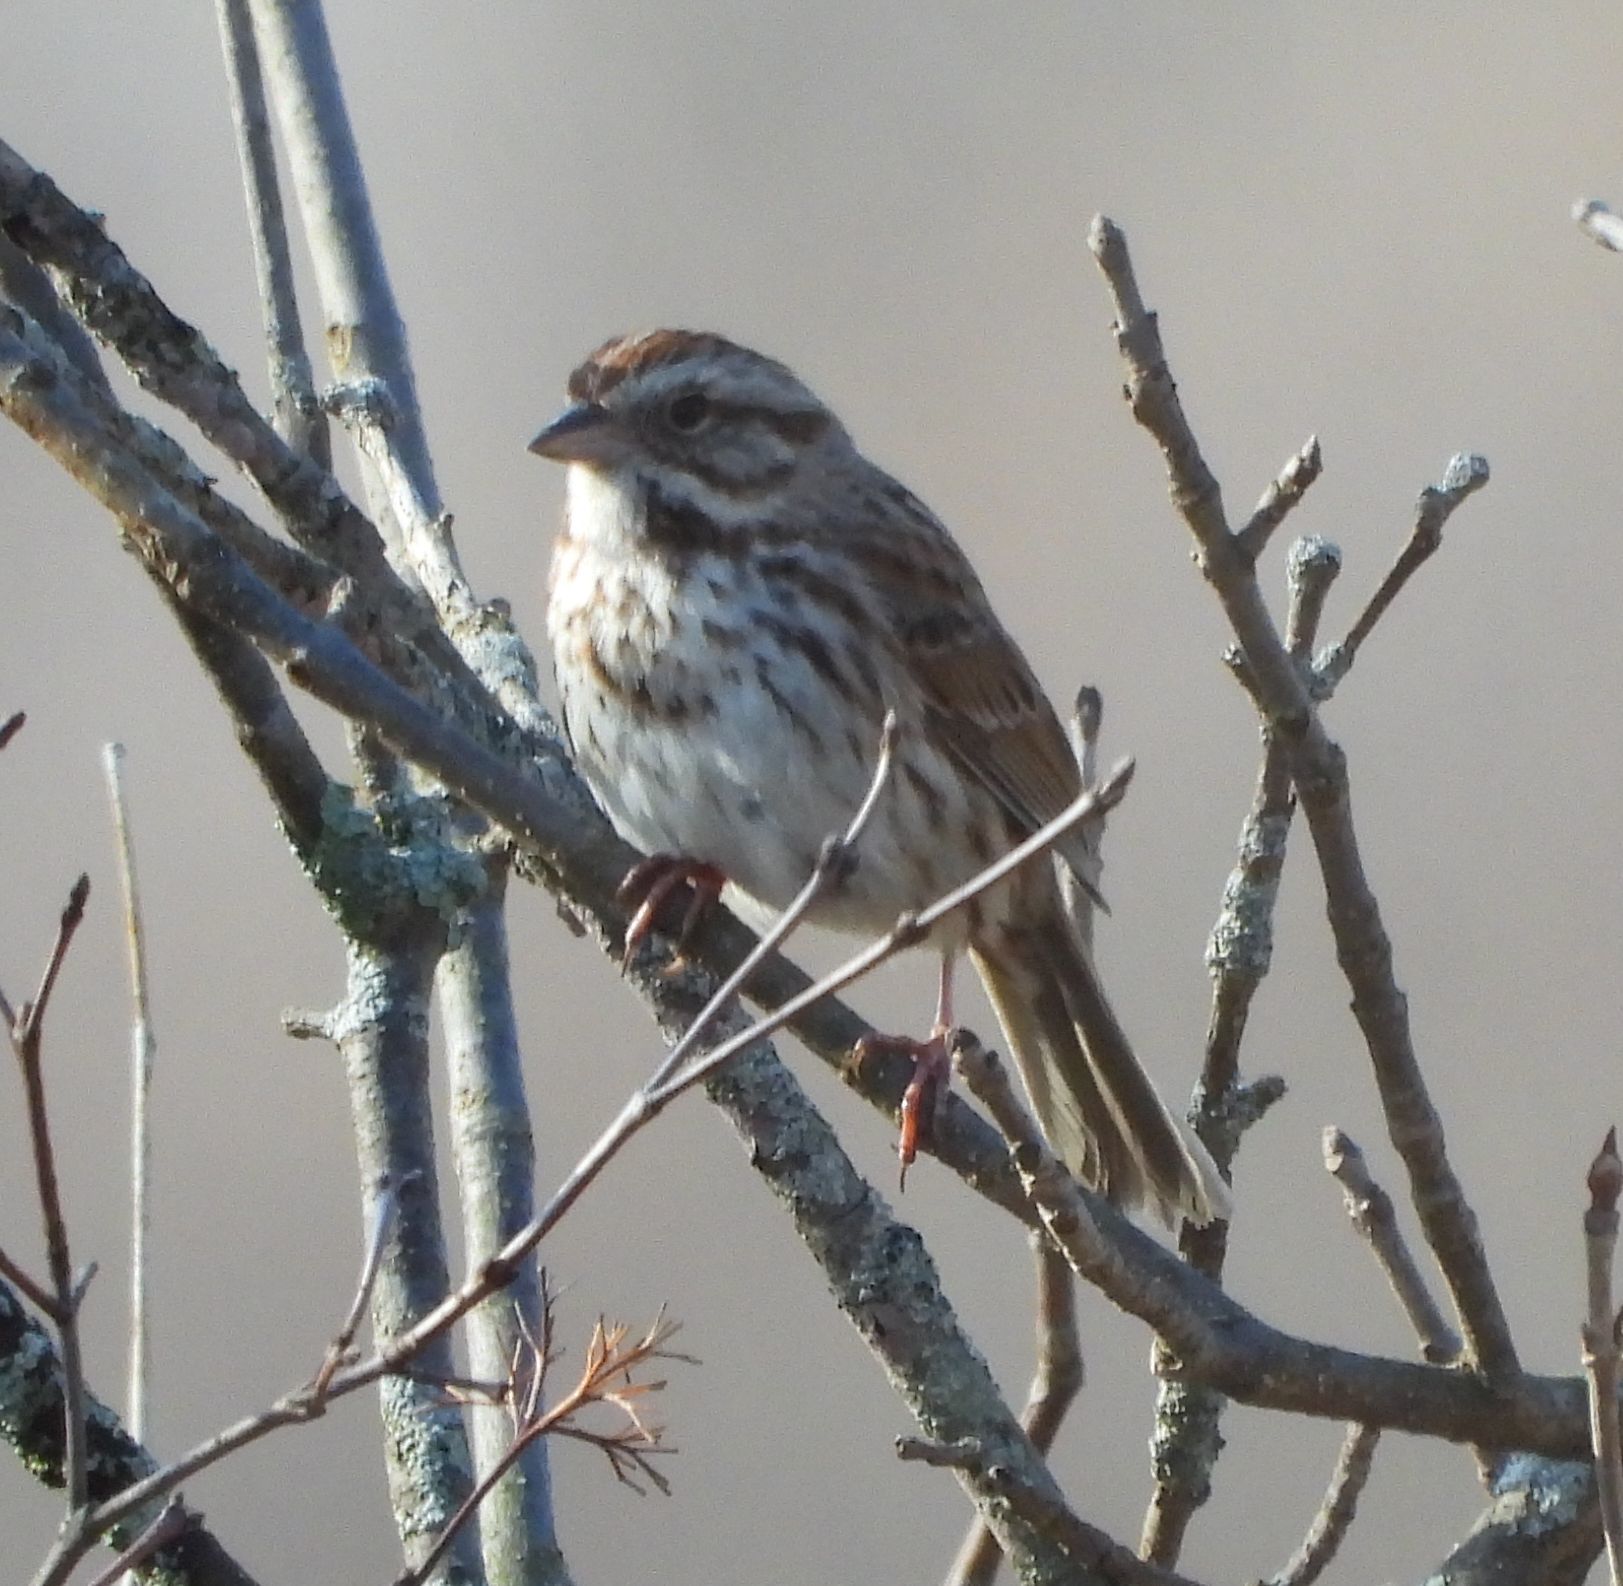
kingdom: Animalia
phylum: Chordata
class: Aves
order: Passeriformes
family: Passerellidae
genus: Melospiza
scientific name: Melospiza melodia
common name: Song sparrow
